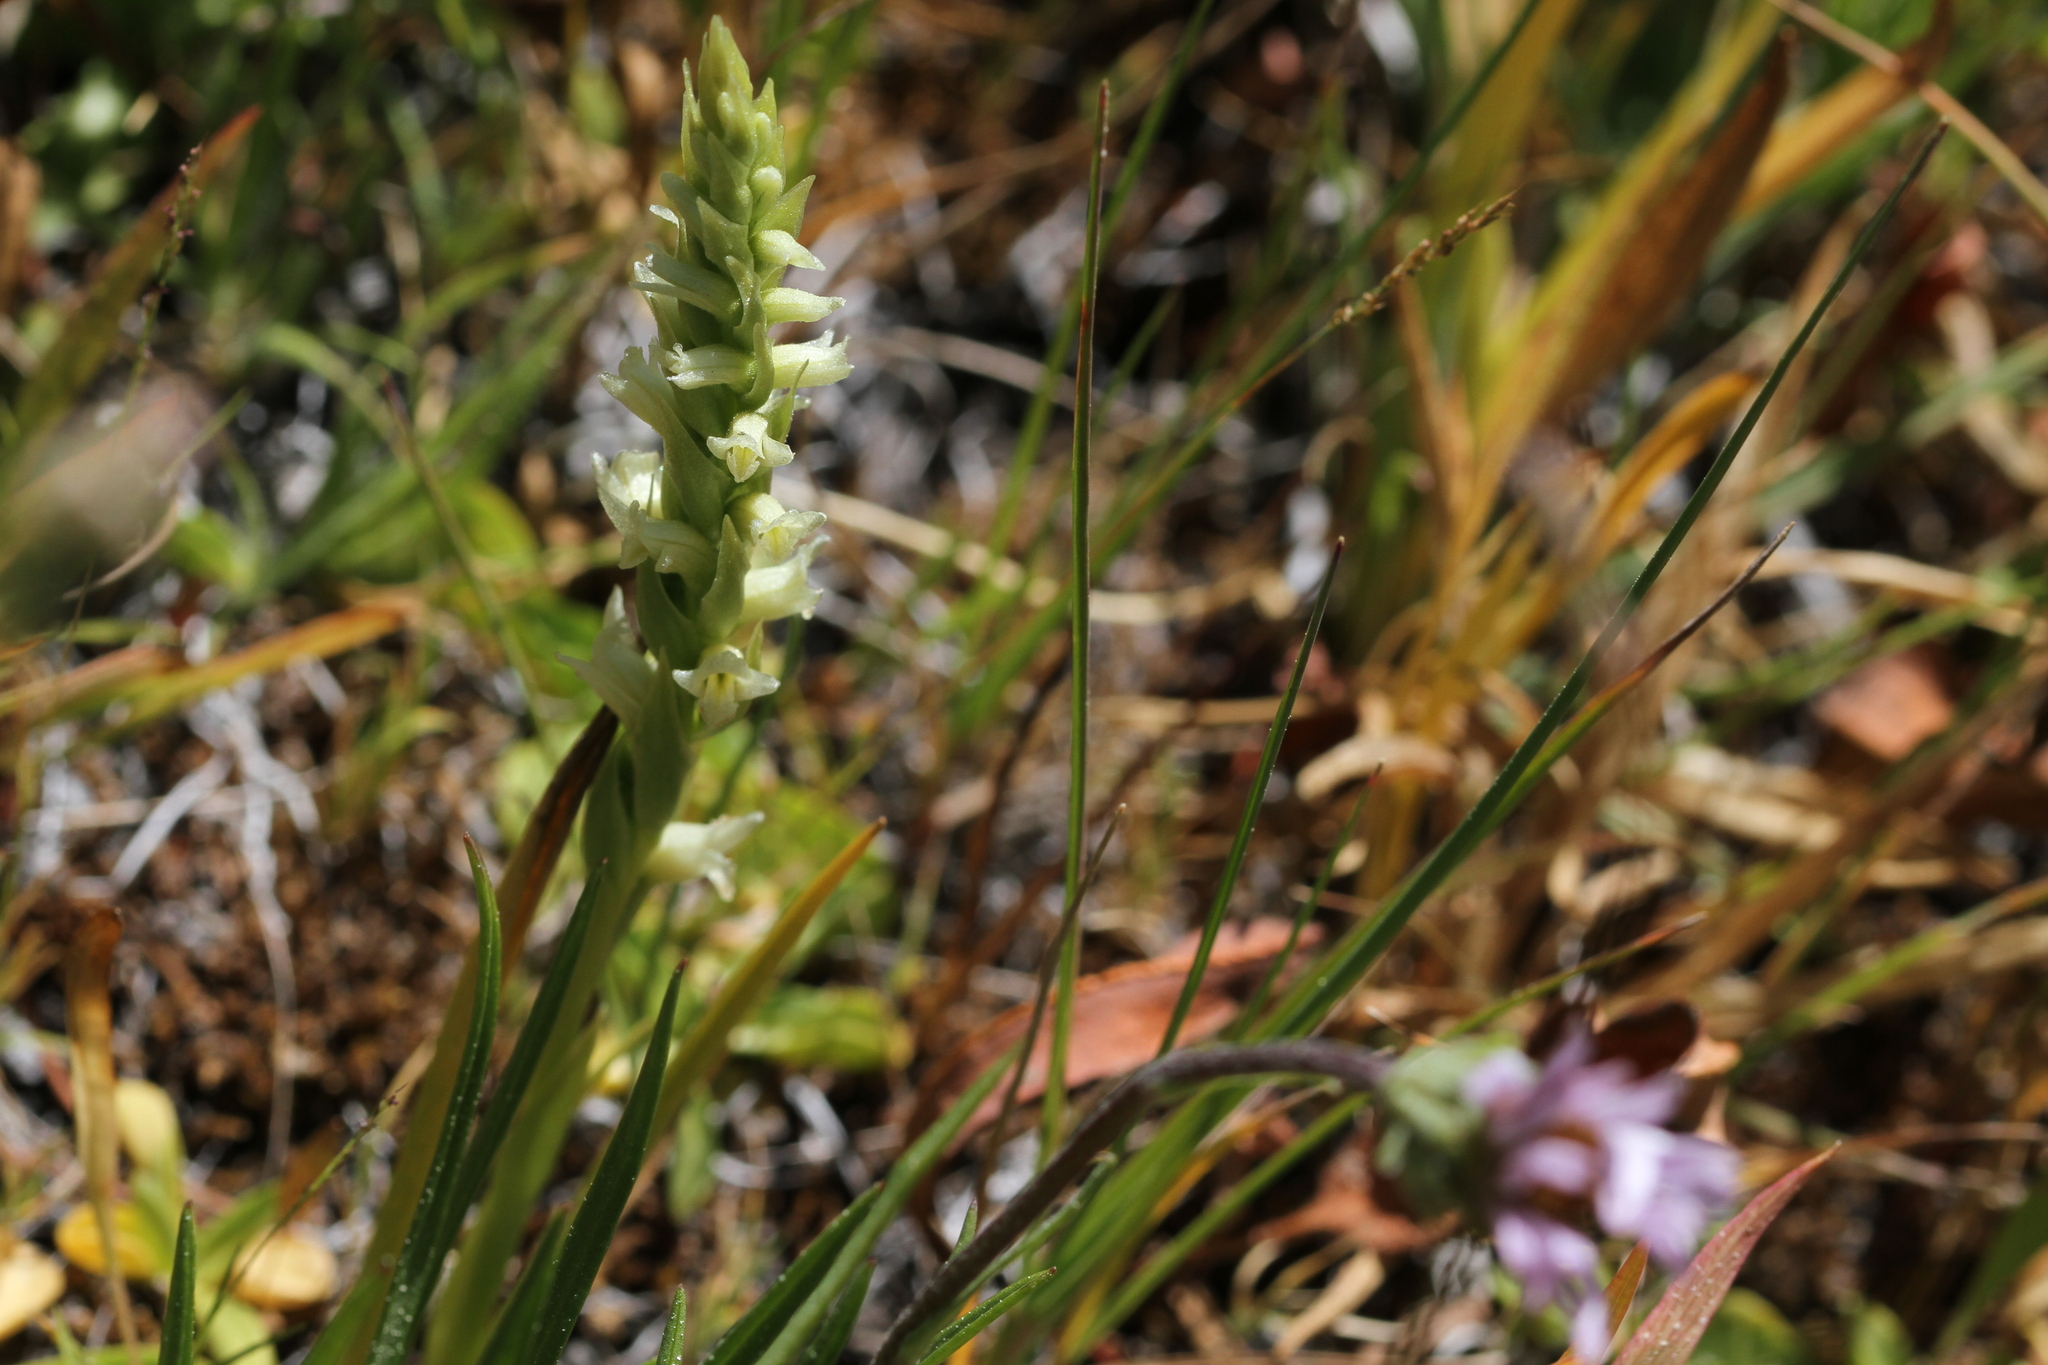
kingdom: Plantae
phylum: Tracheophyta
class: Liliopsida
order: Asparagales
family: Orchidaceae
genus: Spiranthes
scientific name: Spiranthes stellata
